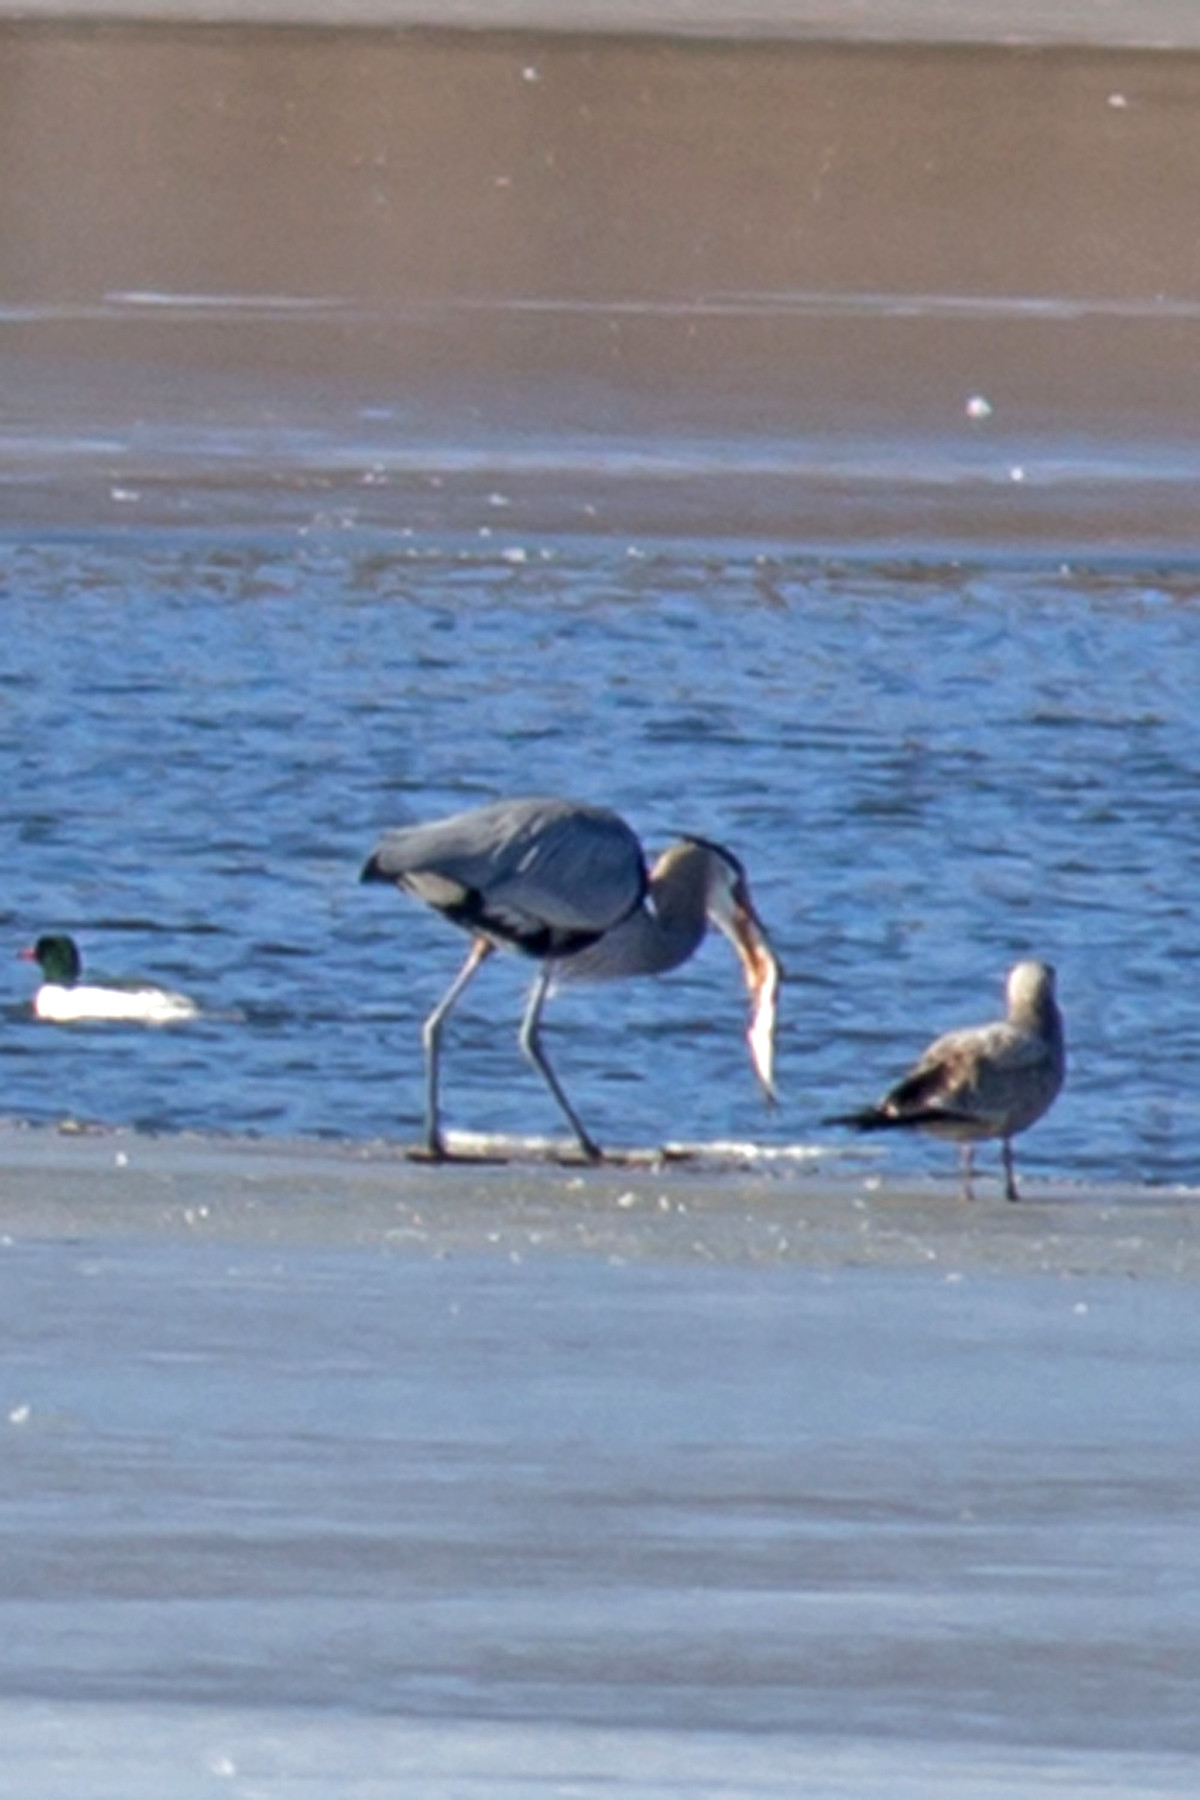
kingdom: Animalia
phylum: Chordata
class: Aves
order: Pelecaniformes
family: Ardeidae
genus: Ardea
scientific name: Ardea herodias
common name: Great blue heron
